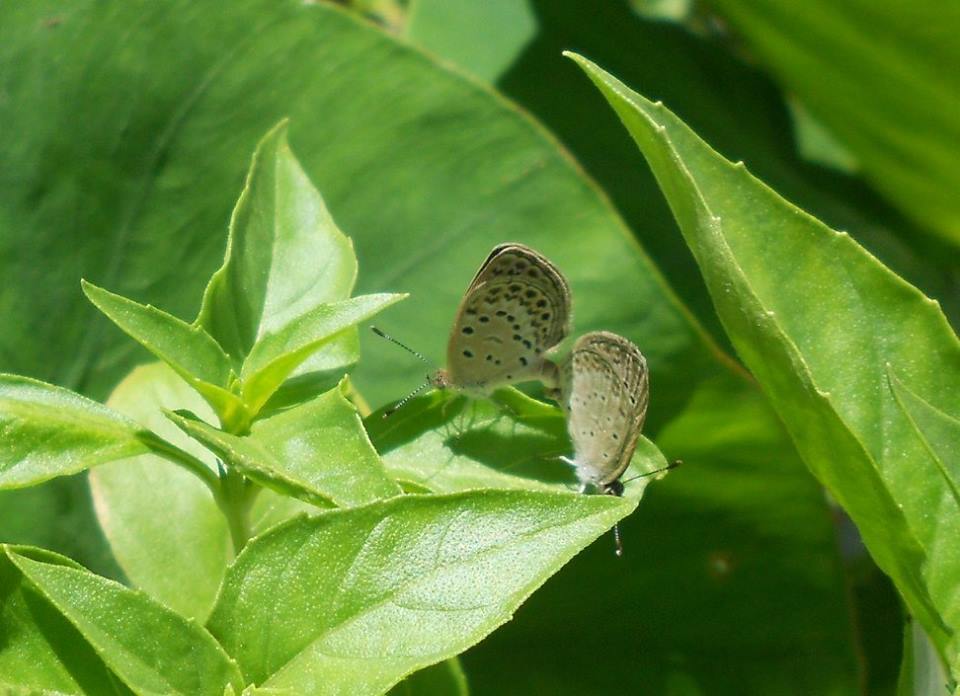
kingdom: Animalia
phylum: Arthropoda
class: Insecta
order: Lepidoptera
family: Lycaenidae
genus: Pseudozizeeria
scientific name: Pseudozizeeria maha
